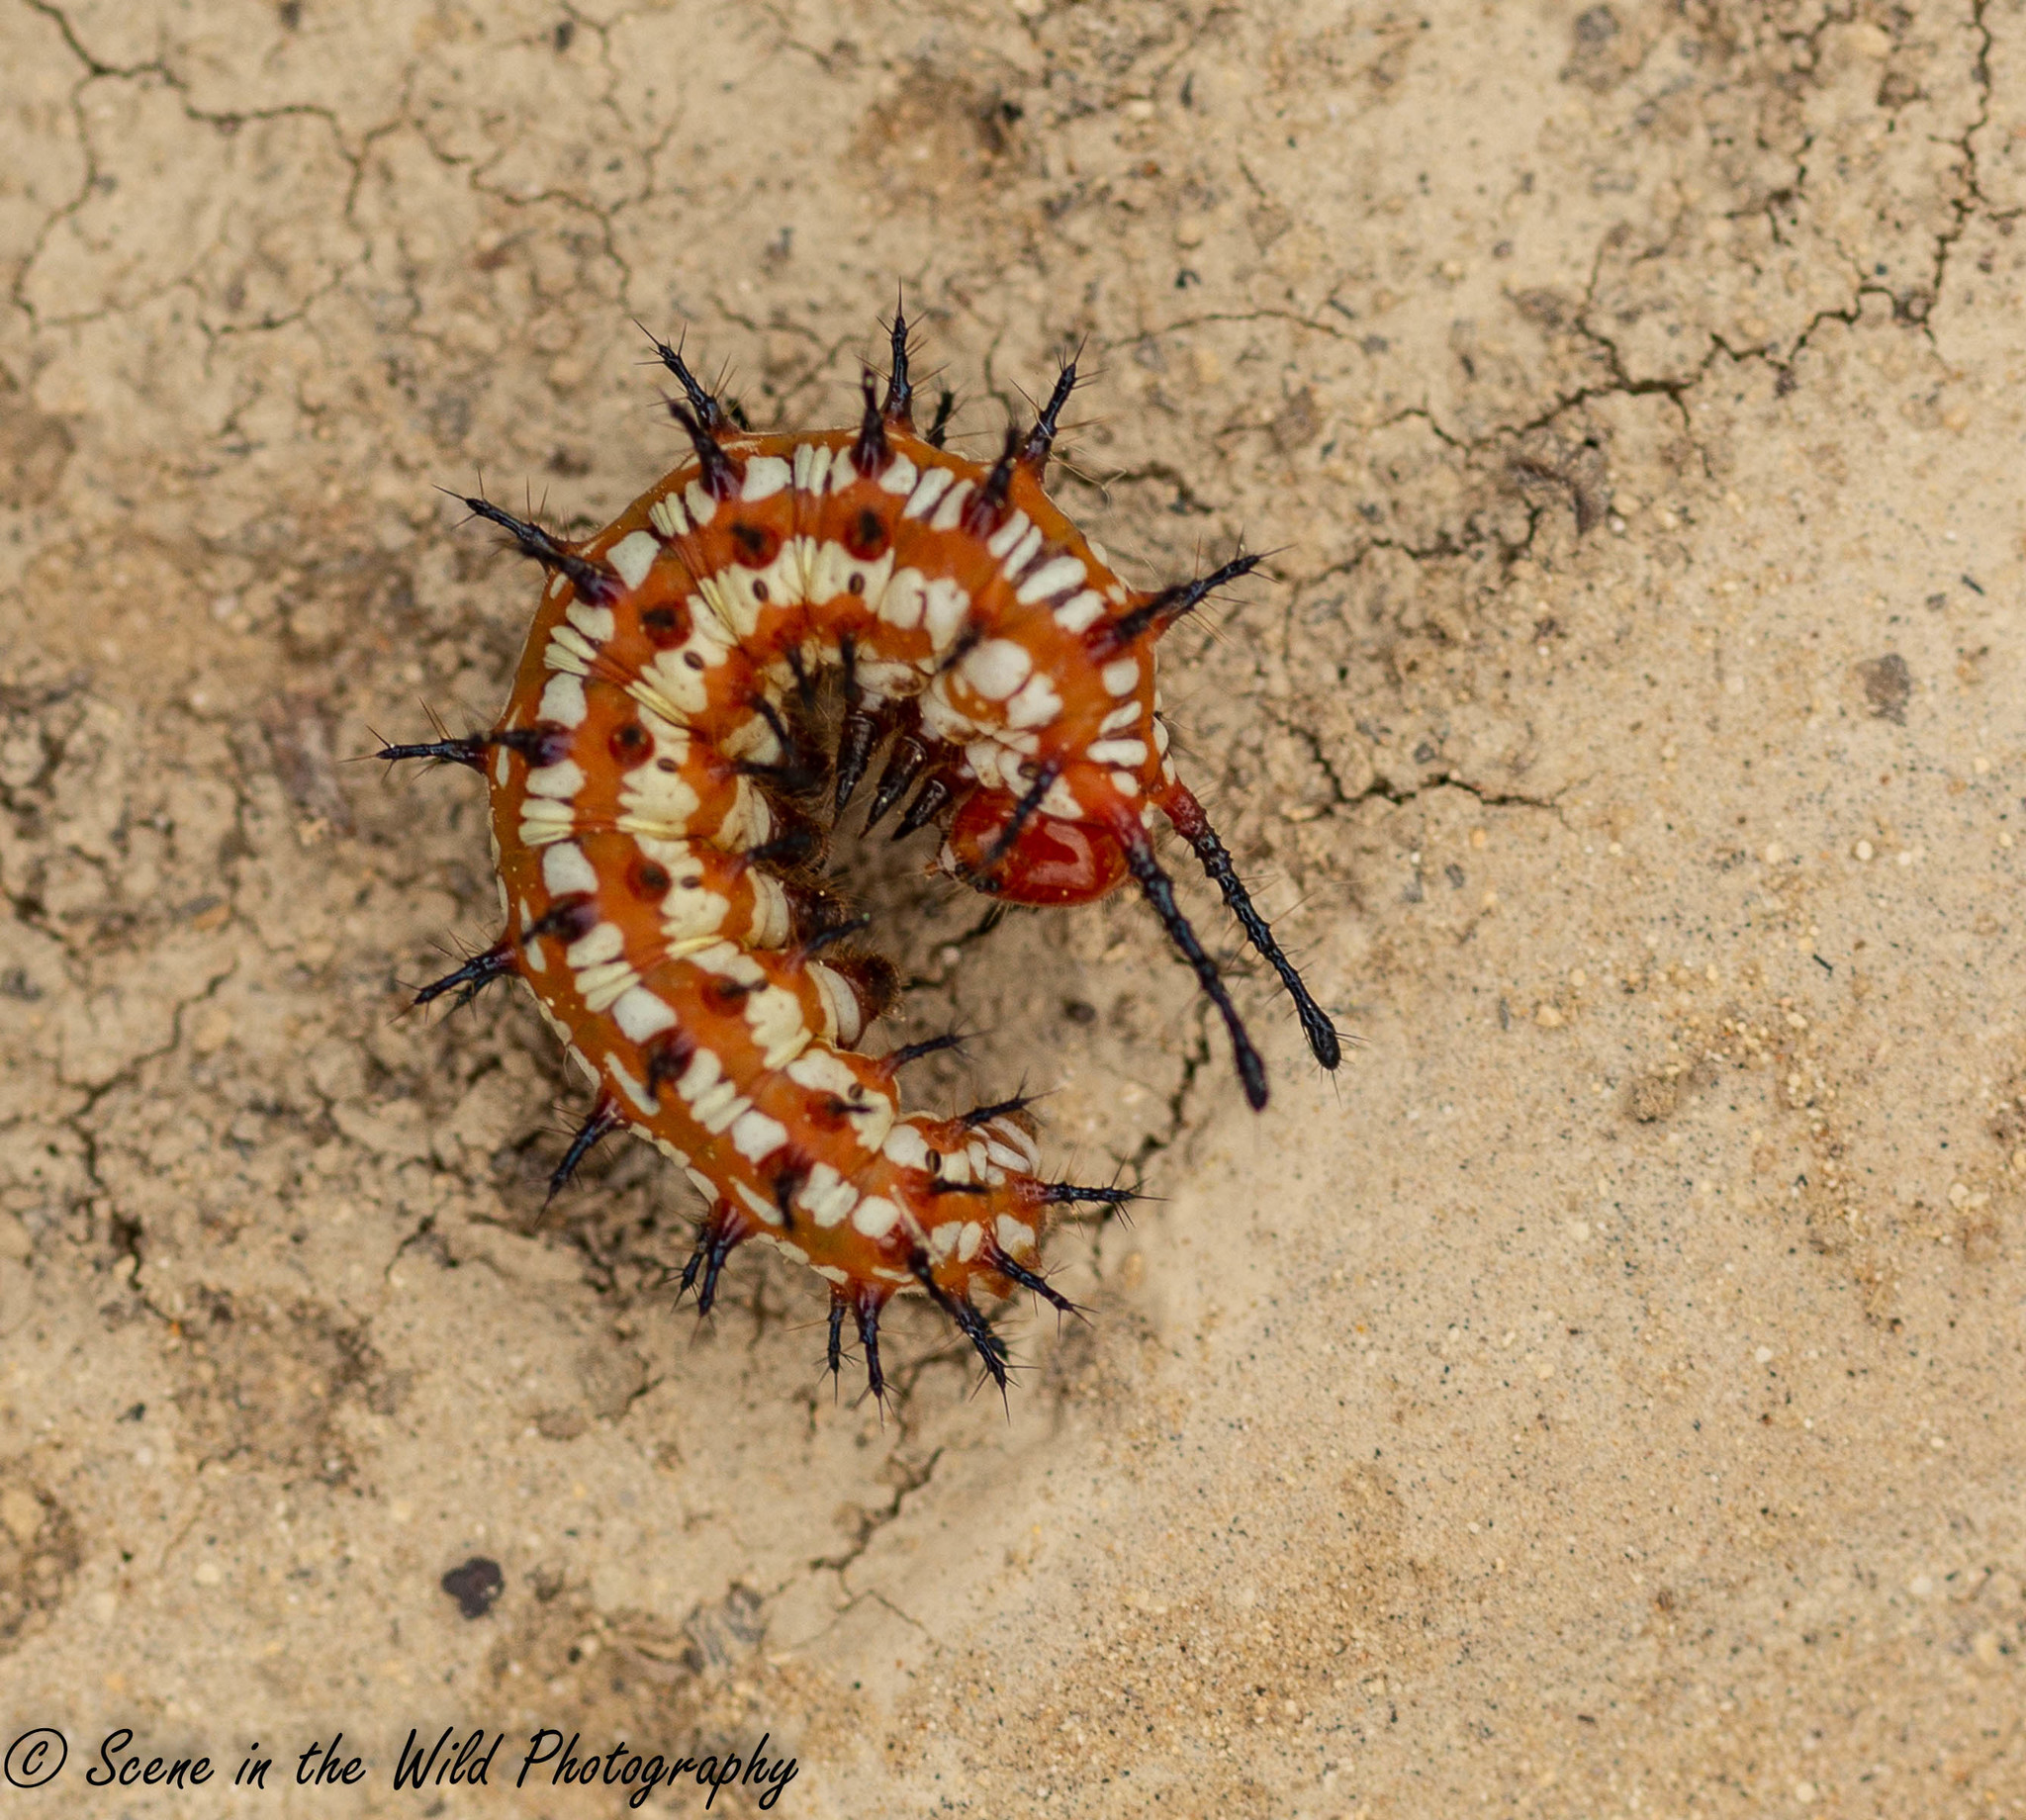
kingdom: Animalia
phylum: Arthropoda
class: Insecta
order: Lepidoptera
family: Nymphalidae
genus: Euptoieta
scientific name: Euptoieta claudia
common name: Variegated fritillary
